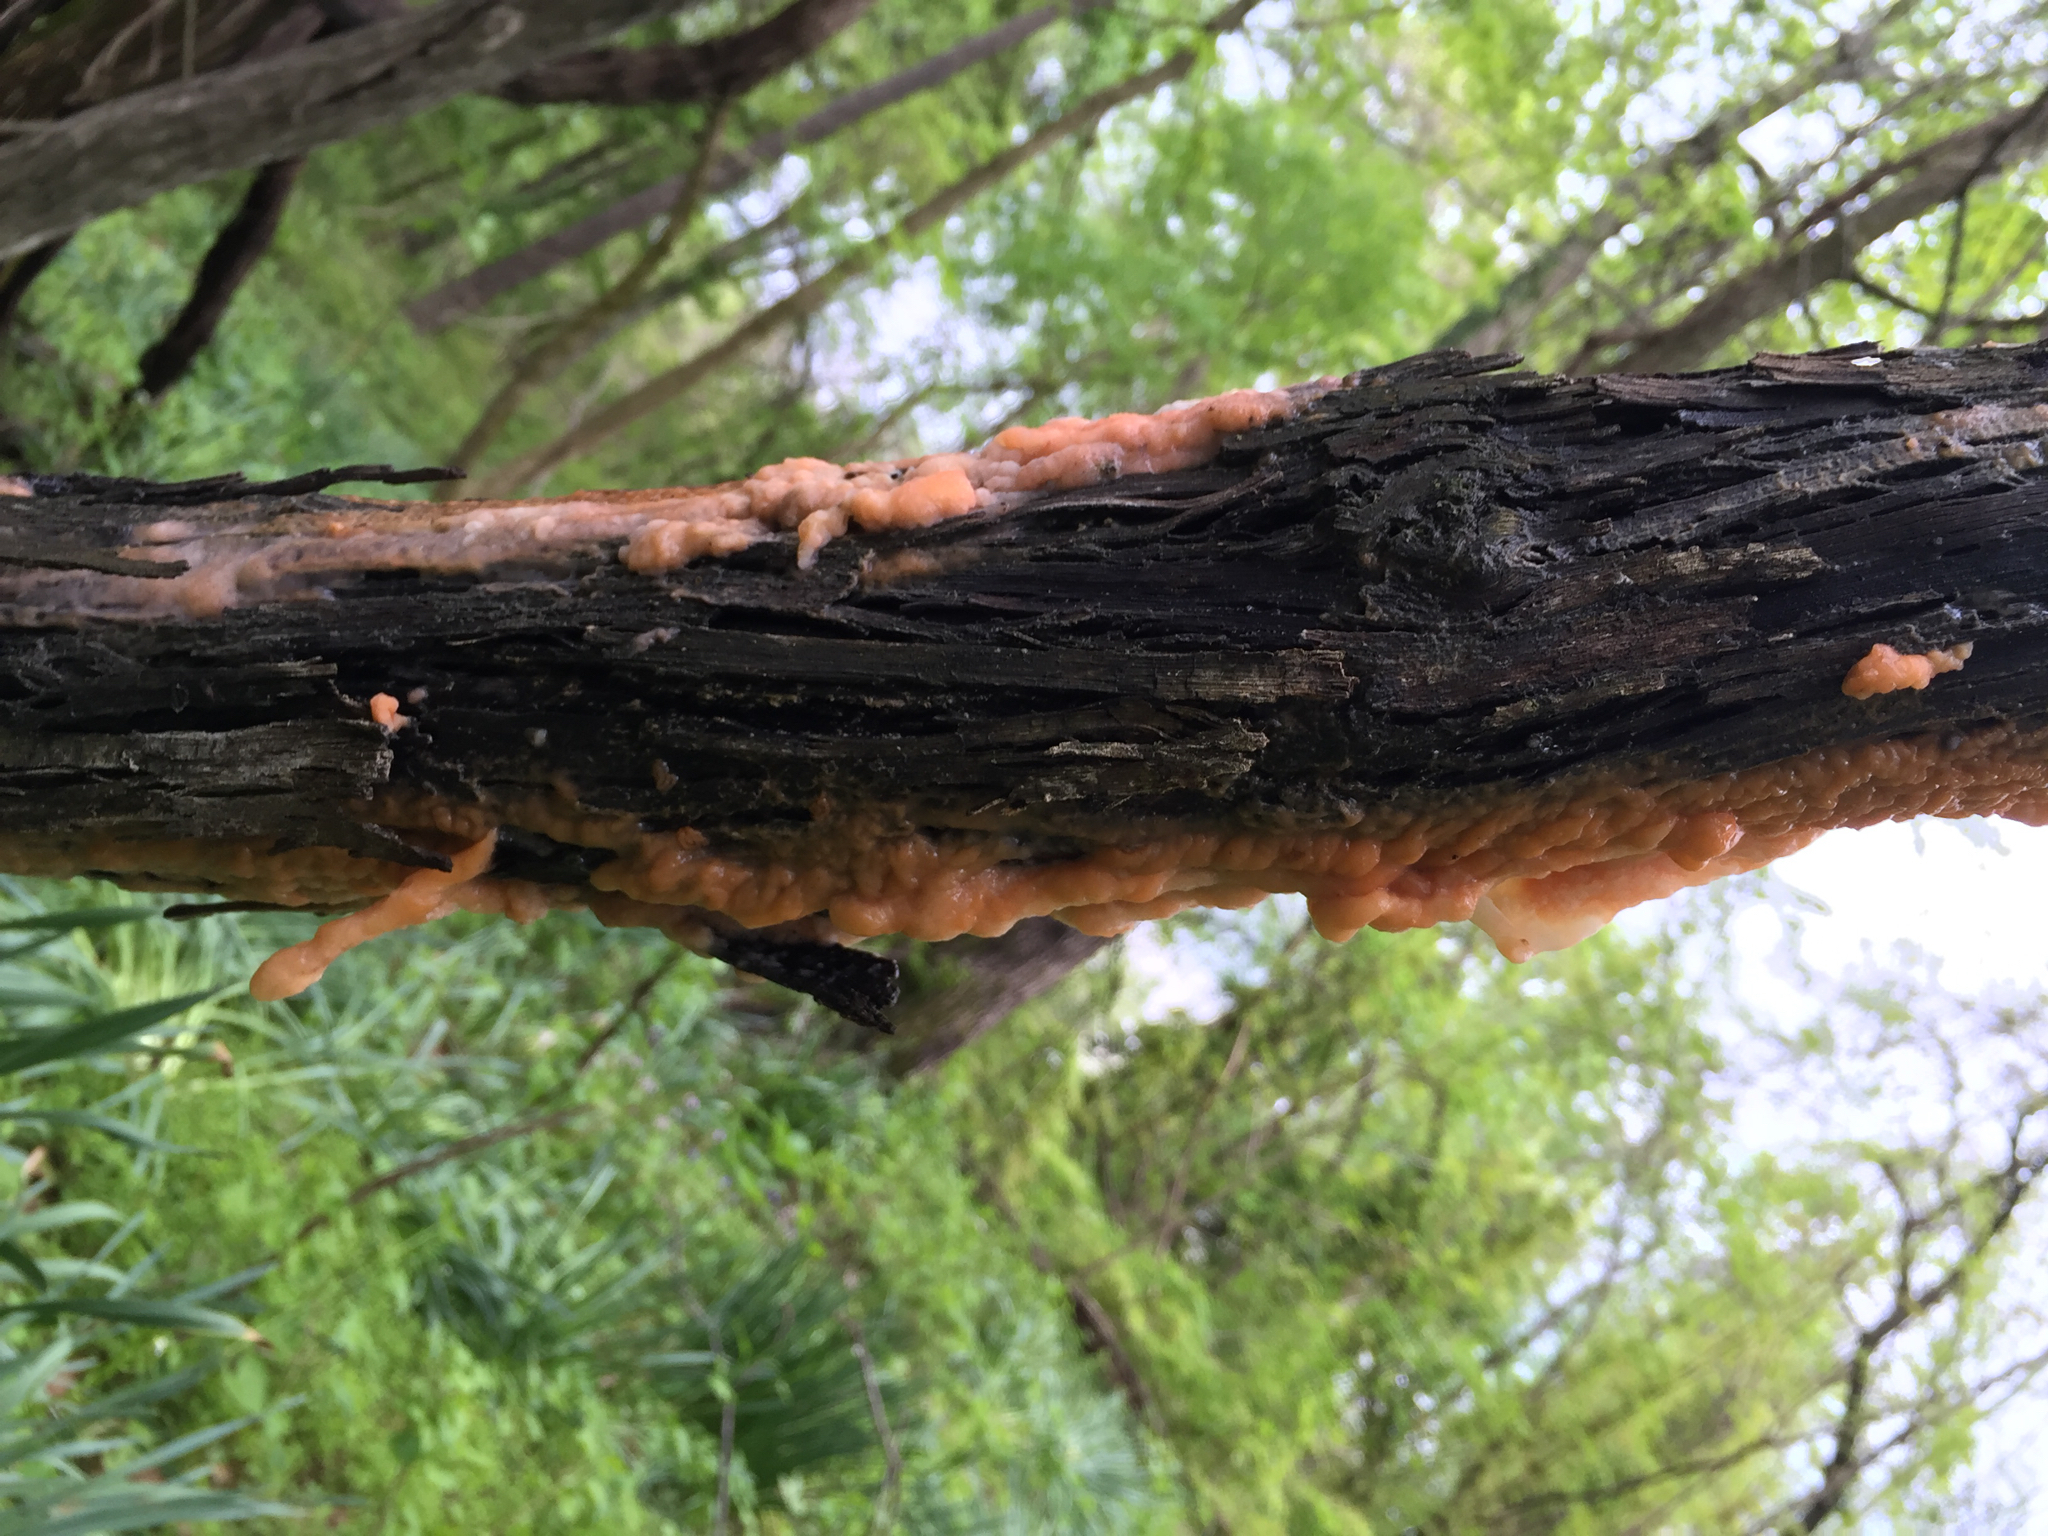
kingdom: Fungi
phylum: Ascomycota
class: Sordariomycetes
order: Hypocreales
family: Nectriaceae
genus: Fusicolla
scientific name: Fusicolla merismoides
